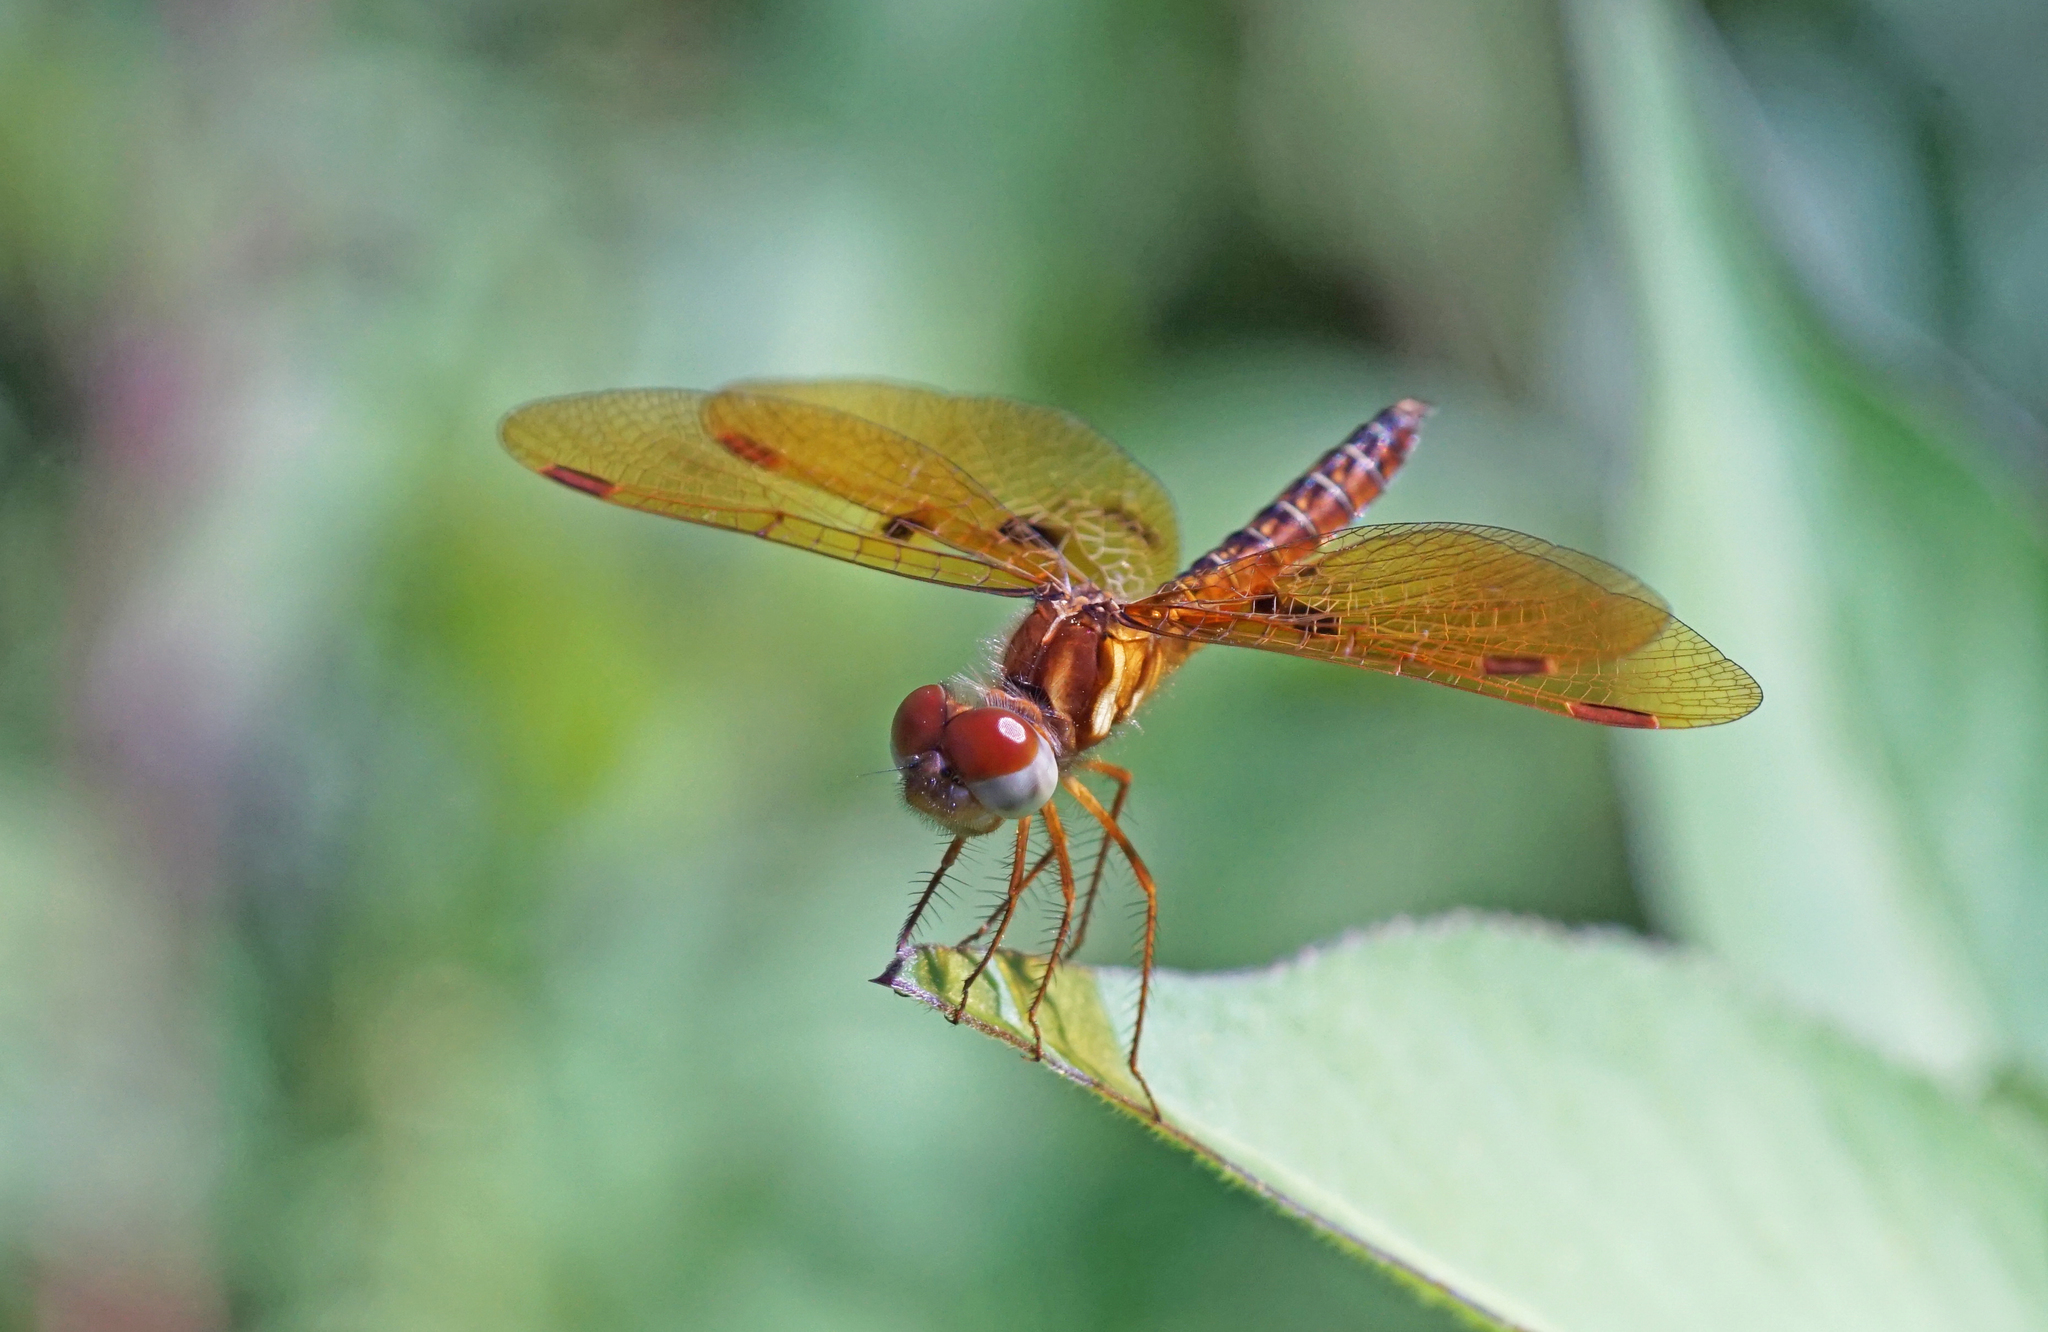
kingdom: Animalia
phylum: Arthropoda
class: Insecta
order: Odonata
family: Libellulidae
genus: Perithemis
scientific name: Perithemis tenera
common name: Eastern amberwing
